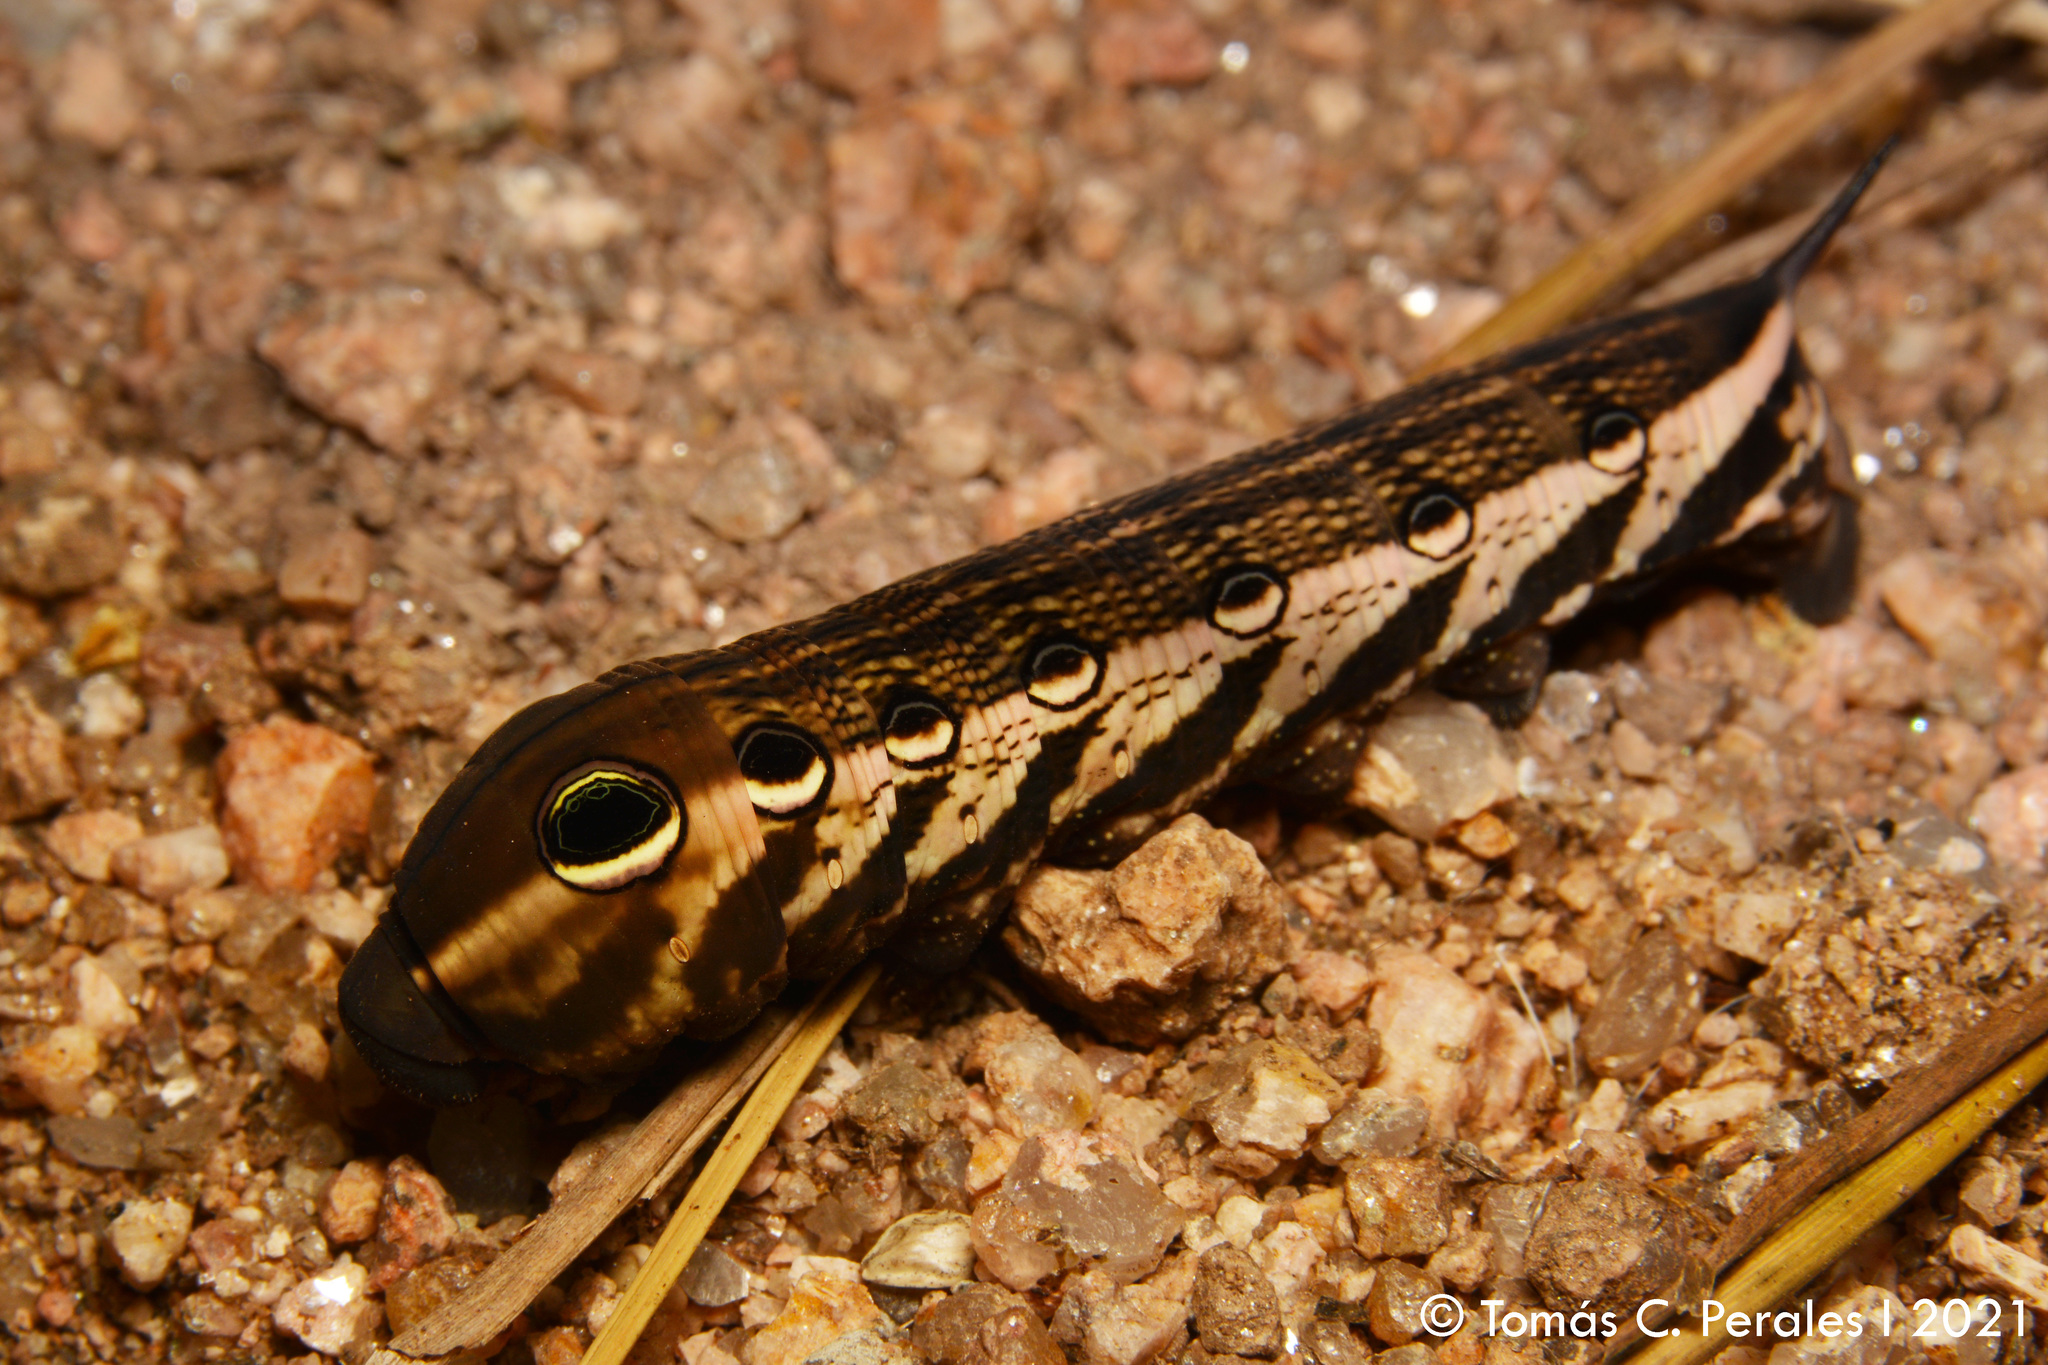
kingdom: Animalia
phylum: Arthropoda
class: Insecta
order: Lepidoptera
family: Sphingidae
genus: Xylophanes
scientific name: Xylophanes tersa
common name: Tersa sphinx
